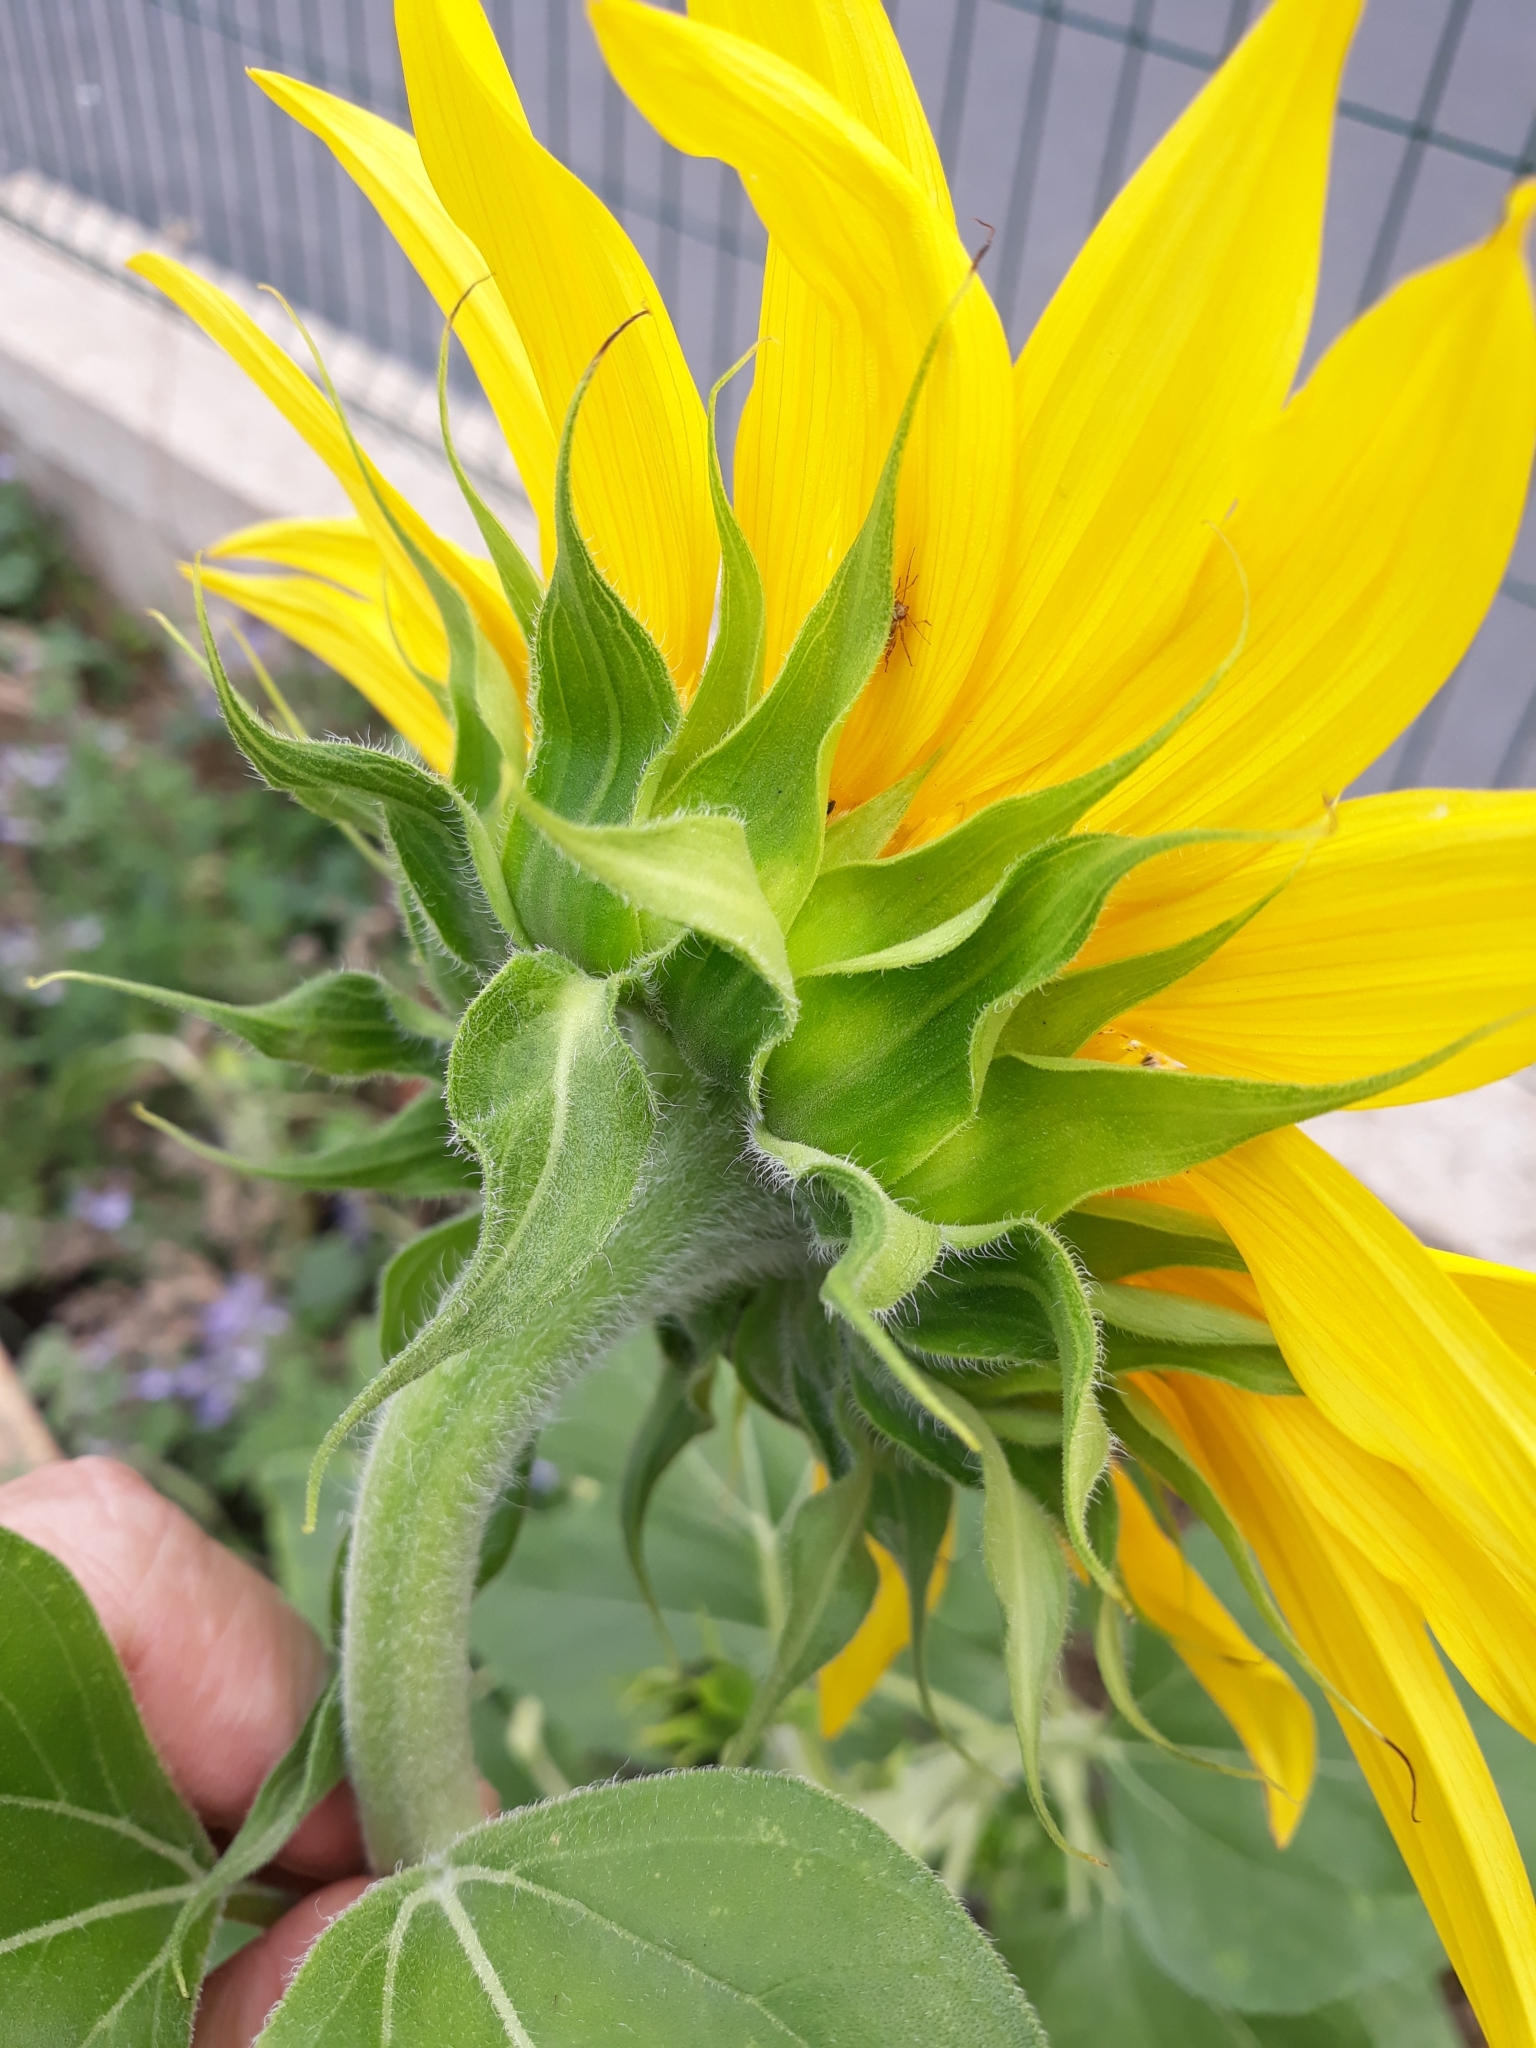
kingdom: Plantae
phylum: Tracheophyta
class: Magnoliopsida
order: Asterales
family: Asteraceae
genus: Helianthus
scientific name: Helianthus annuus
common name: Sunflower
